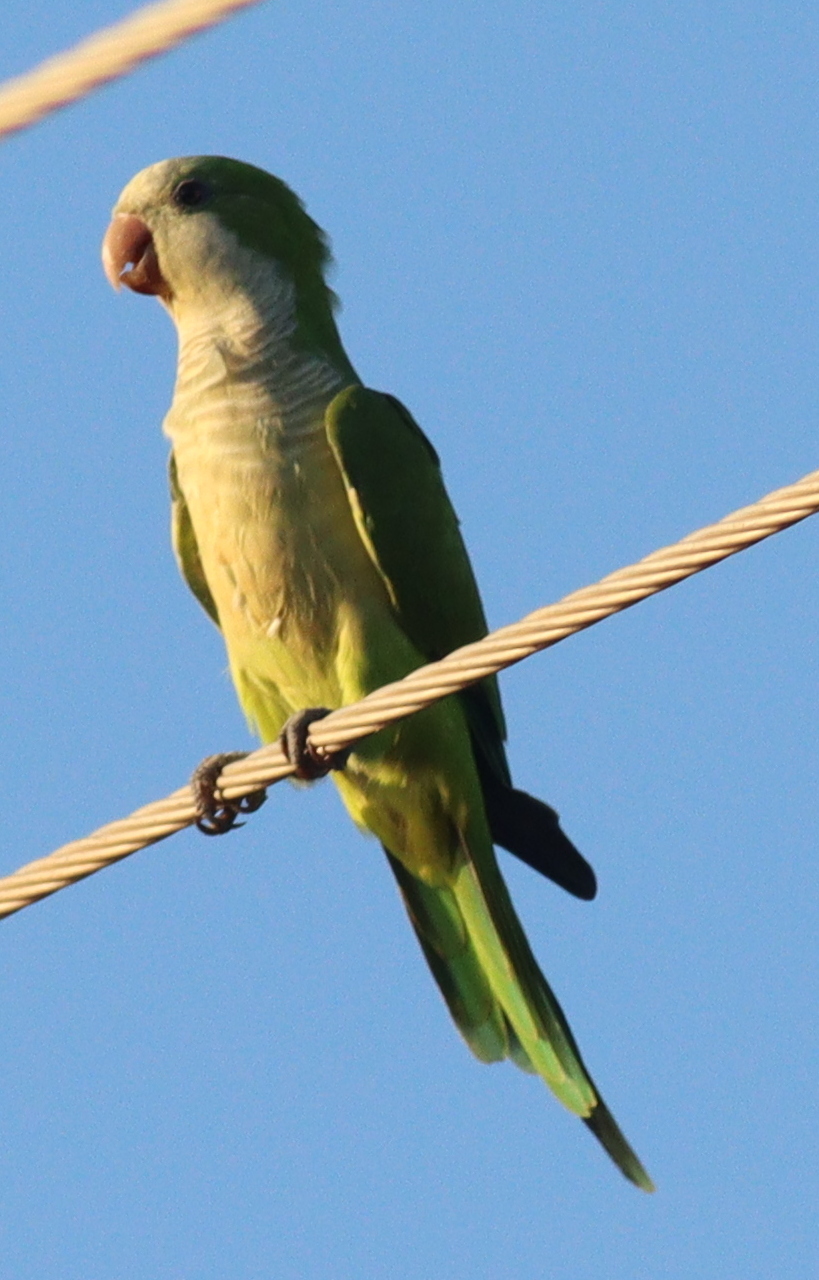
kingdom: Animalia
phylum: Chordata
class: Aves
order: Psittaciformes
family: Psittacidae
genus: Myiopsitta
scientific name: Myiopsitta monachus
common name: Monk parakeet
